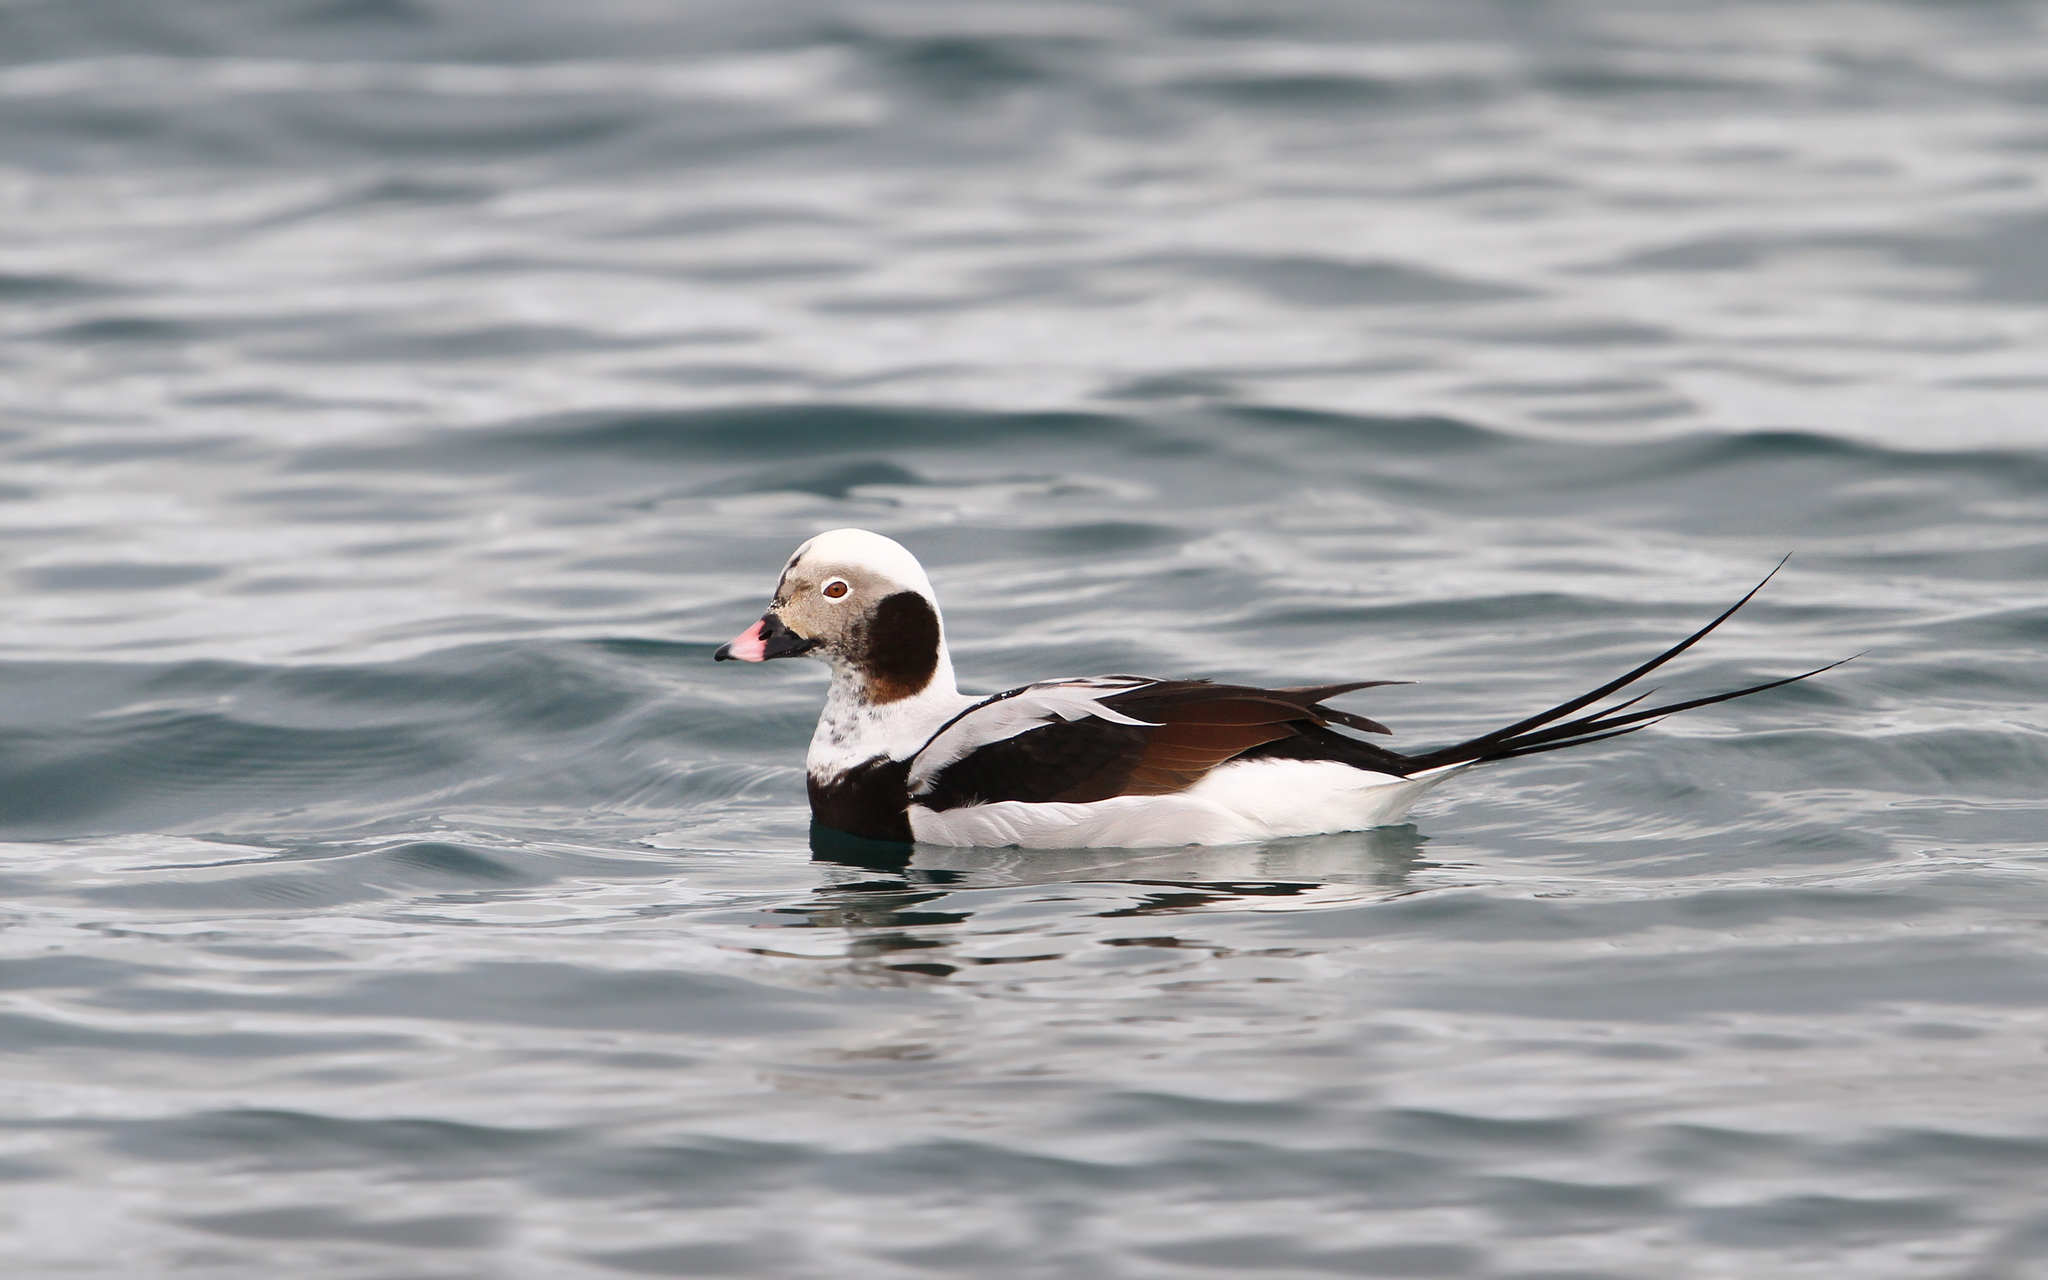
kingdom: Animalia
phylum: Chordata
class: Aves
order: Anseriformes
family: Anatidae
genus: Clangula
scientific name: Clangula hyemalis
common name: Long-tailed duck
